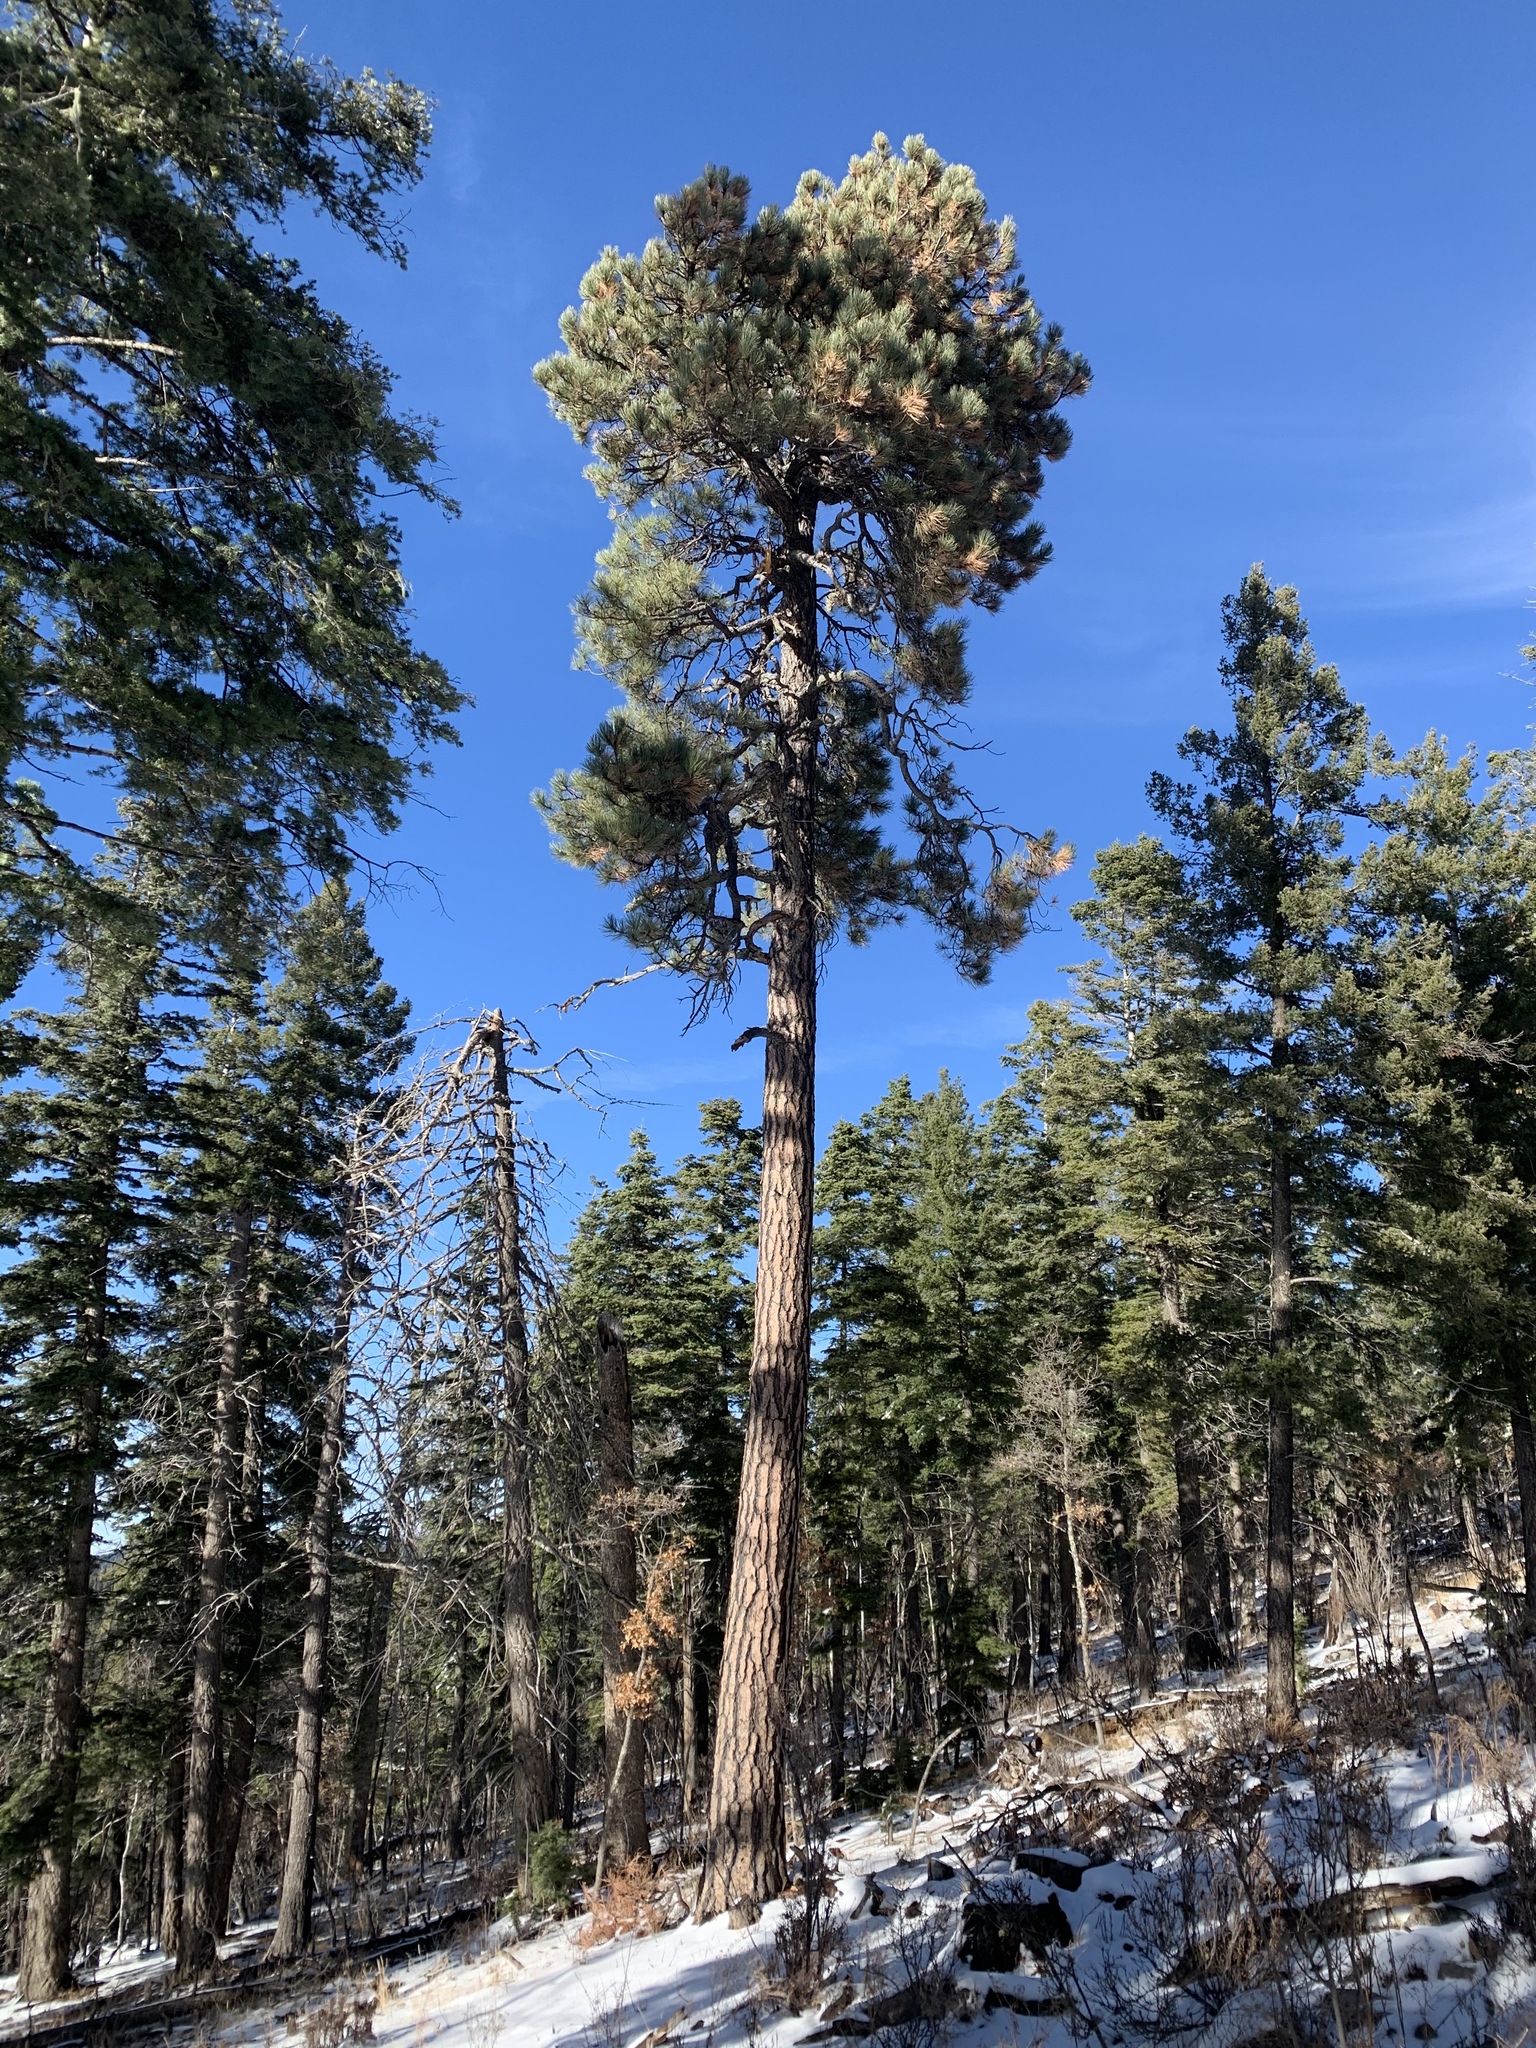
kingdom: Plantae
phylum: Tracheophyta
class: Pinopsida
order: Pinales
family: Pinaceae
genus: Pinus
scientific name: Pinus ponderosa
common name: Western yellow-pine
